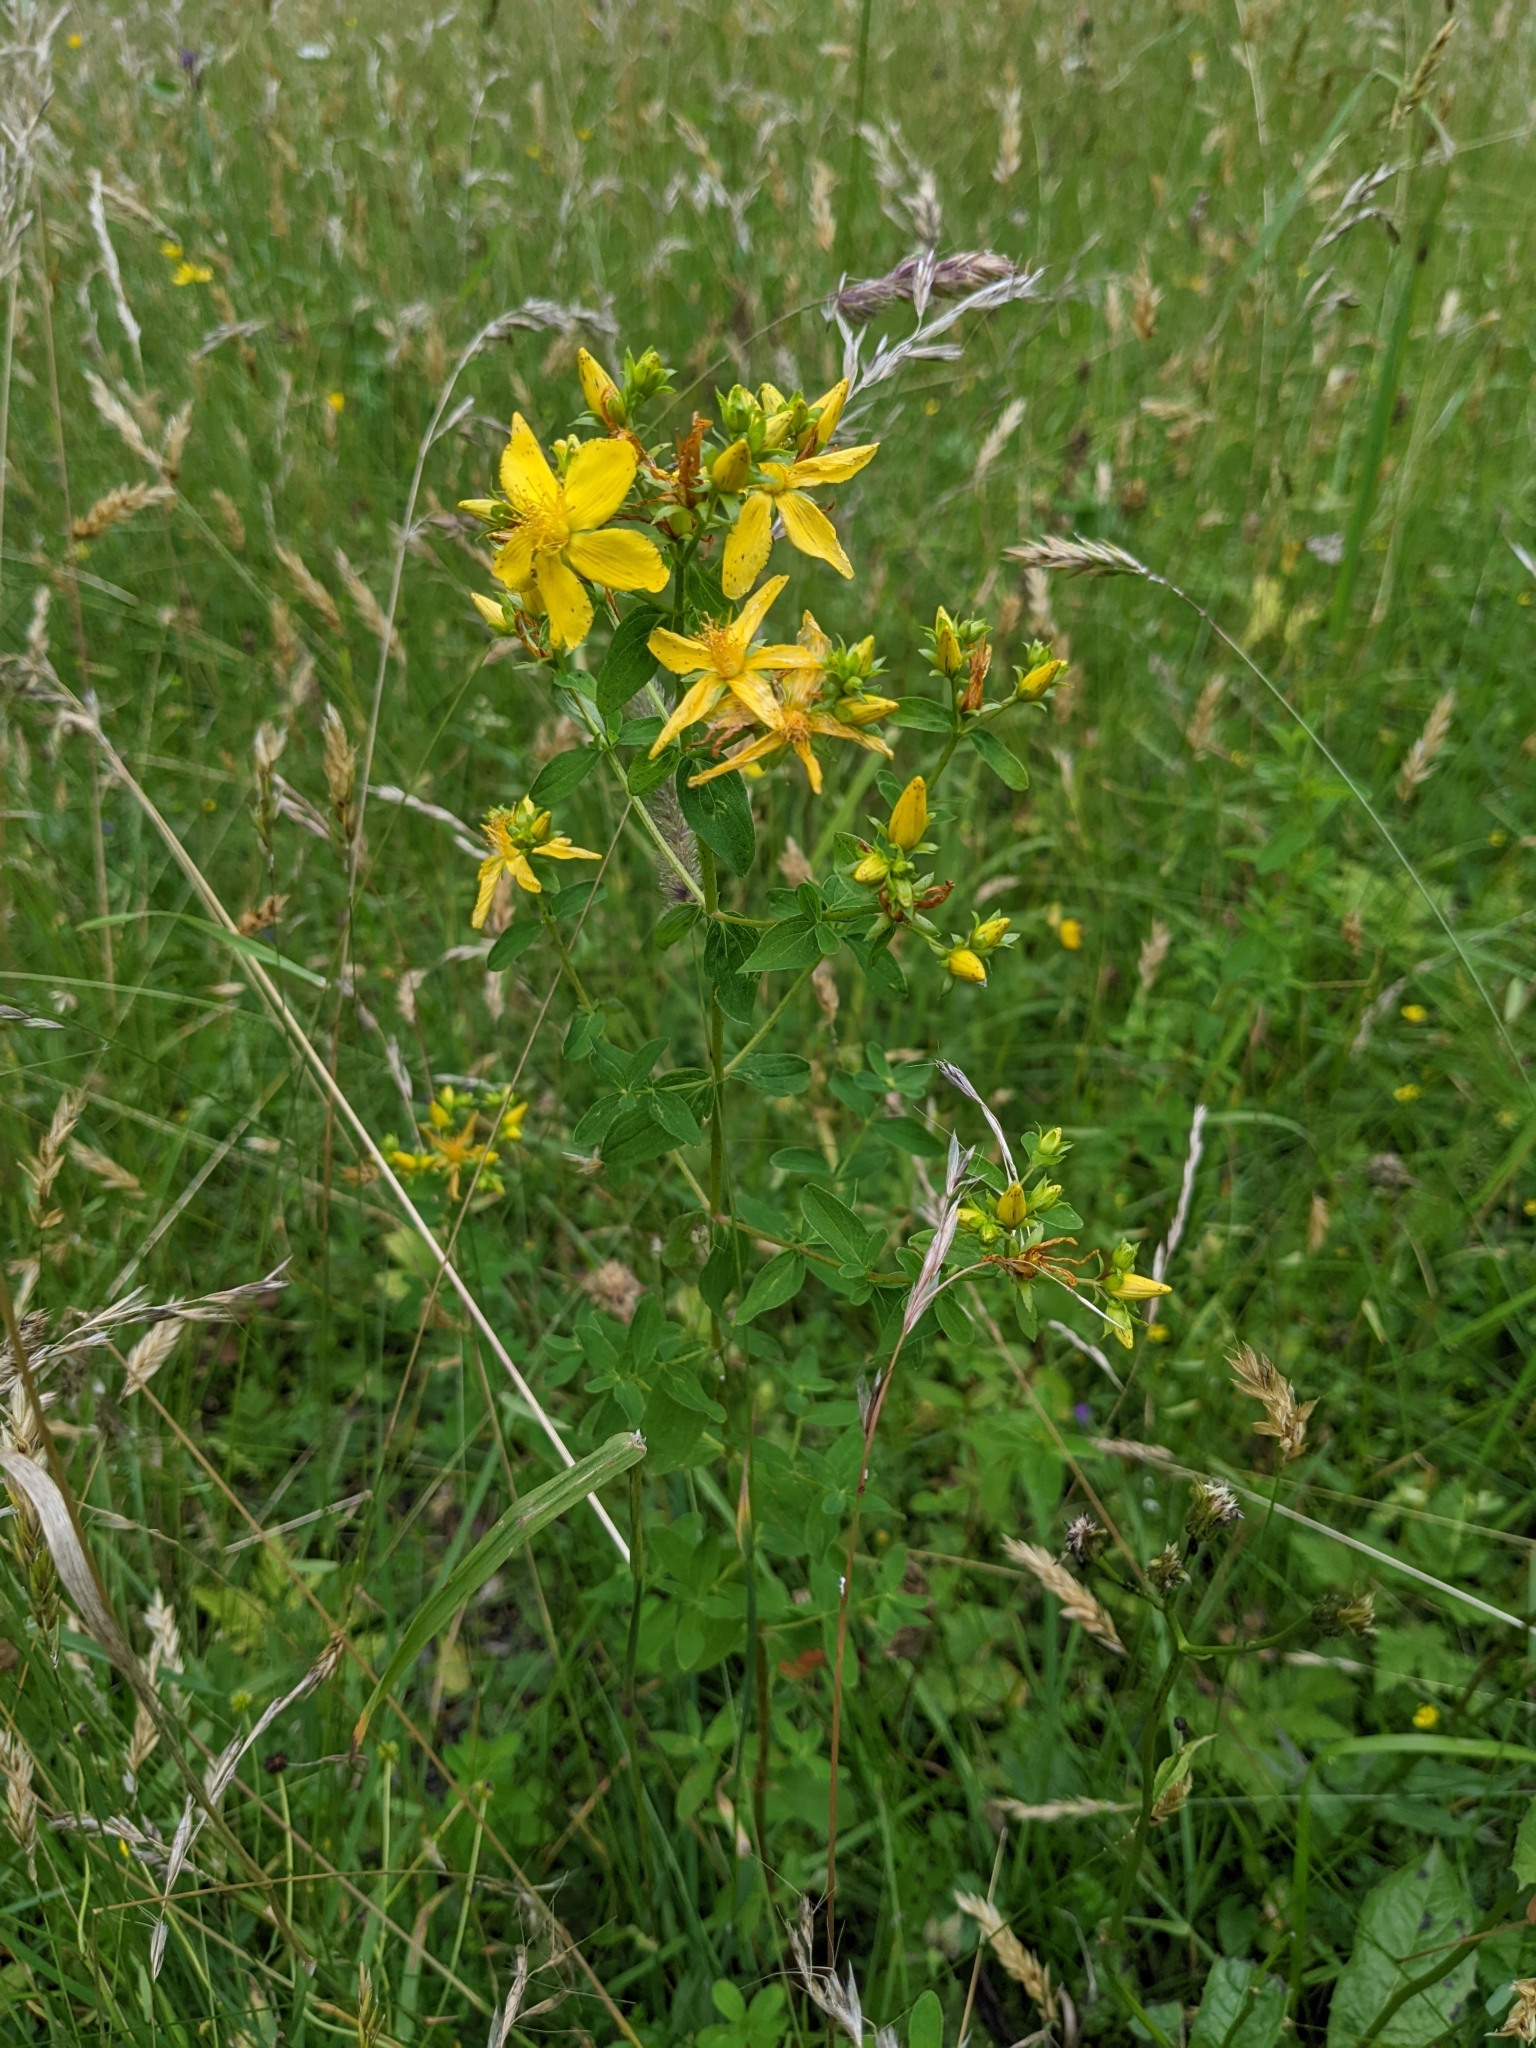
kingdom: Plantae
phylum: Tracheophyta
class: Magnoliopsida
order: Malpighiales
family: Hypericaceae
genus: Hypericum
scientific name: Hypericum perforatum
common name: Common st. johnswort
